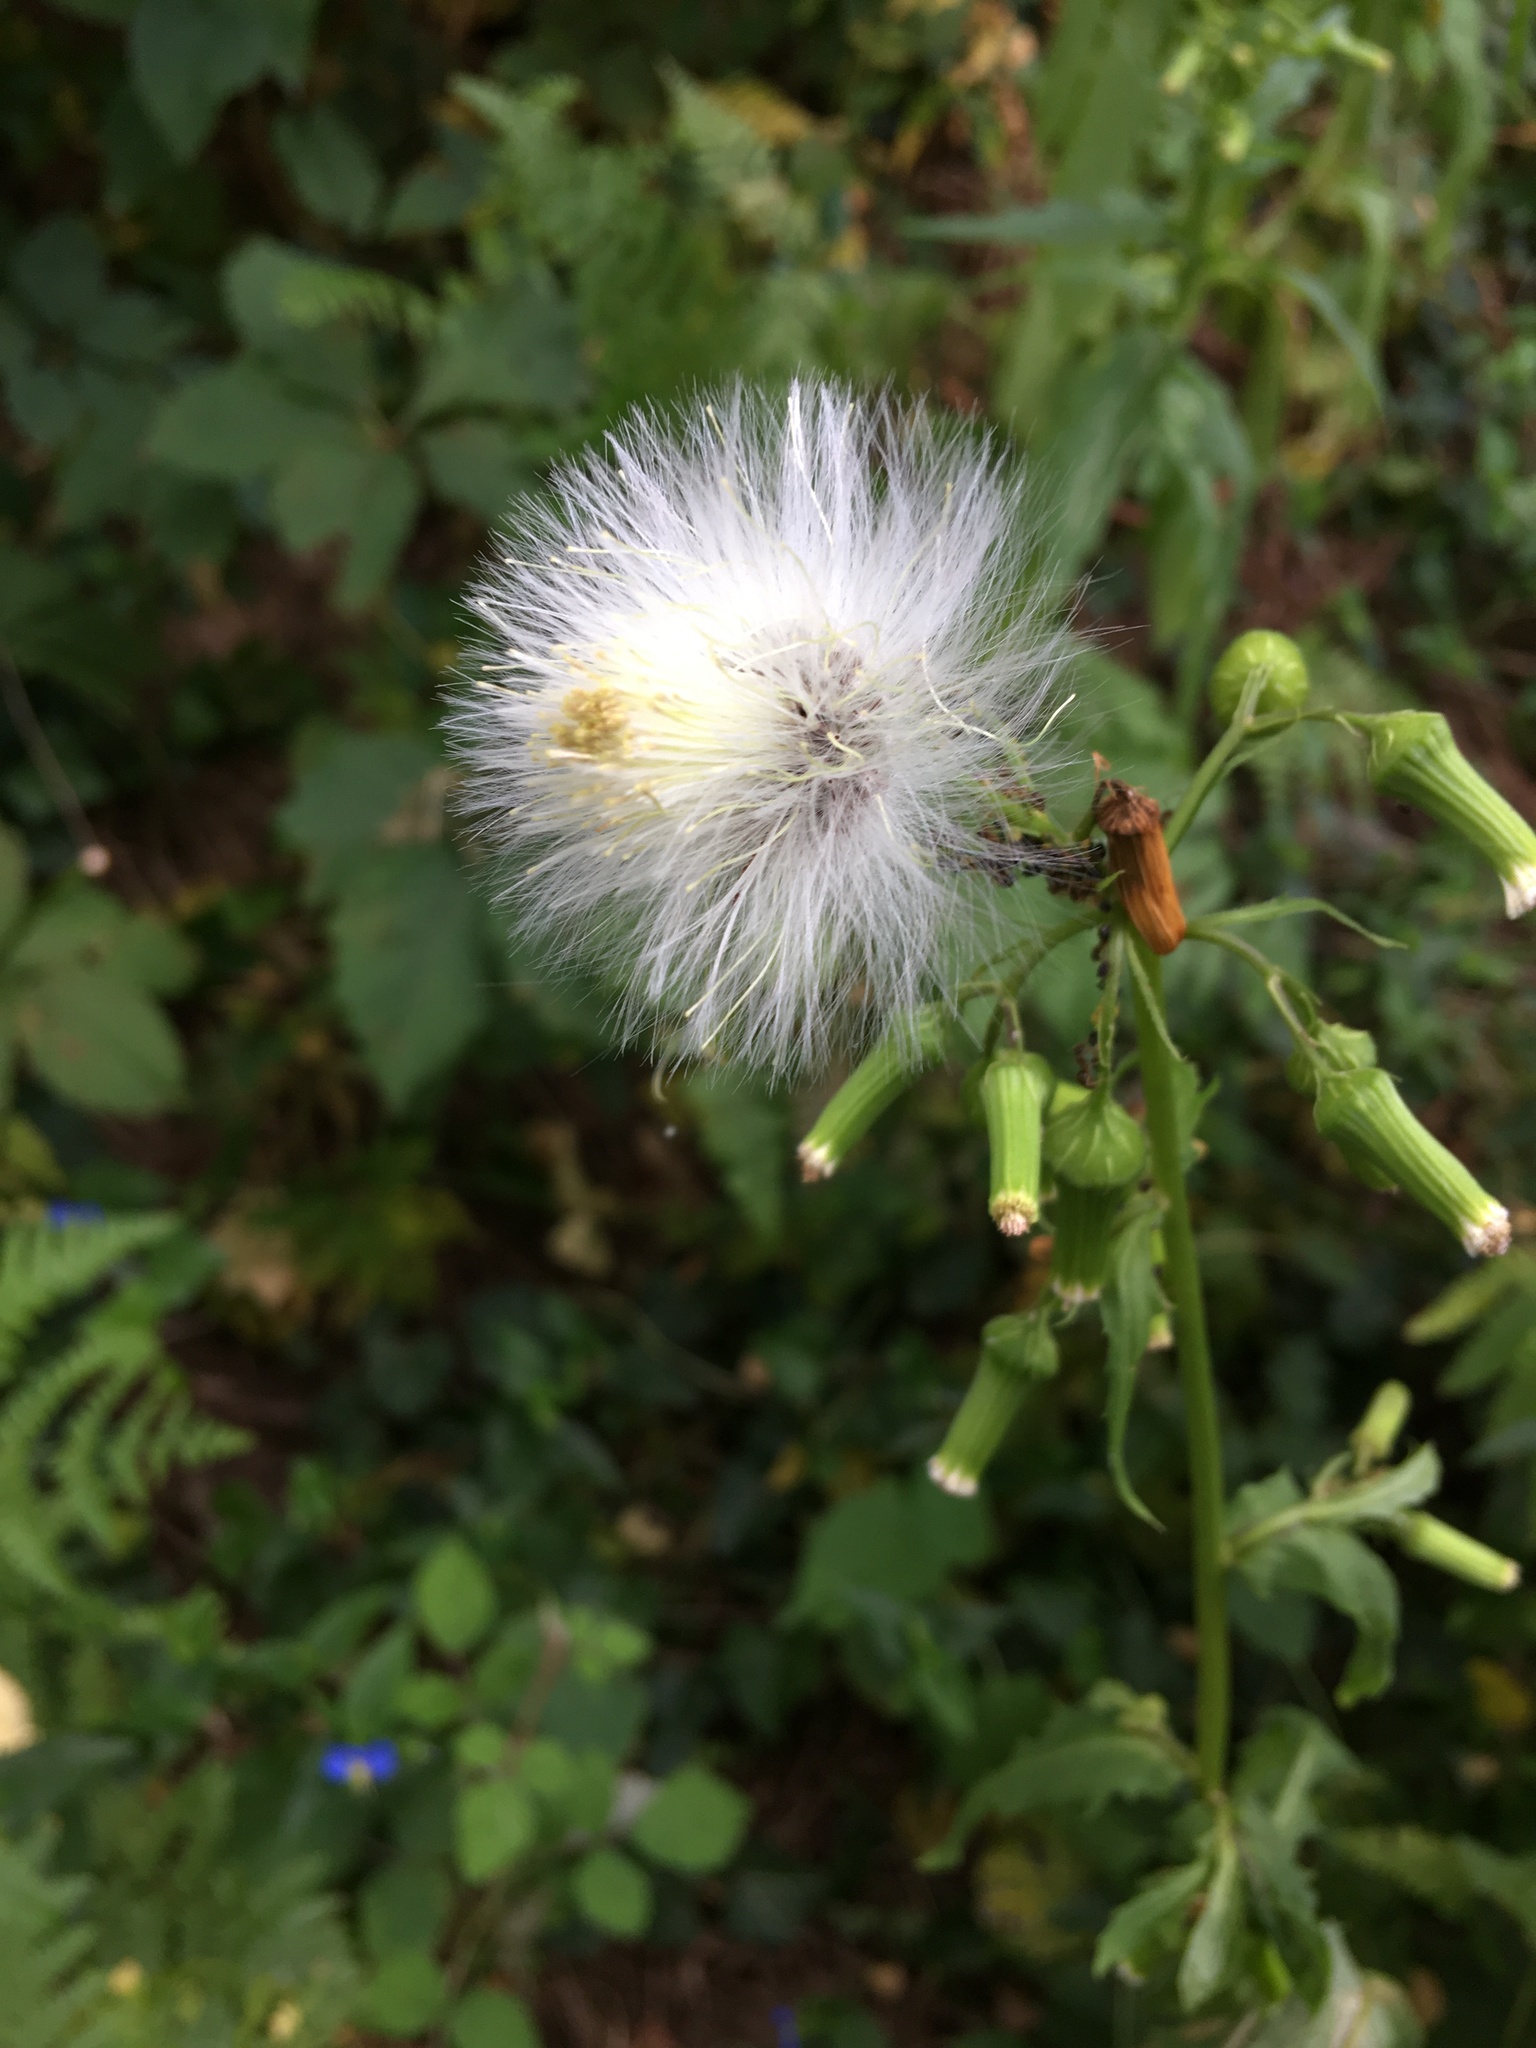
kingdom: Plantae
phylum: Tracheophyta
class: Magnoliopsida
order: Asterales
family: Asteraceae
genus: Erechtites
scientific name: Erechtites hieraciifolius
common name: American burnweed
